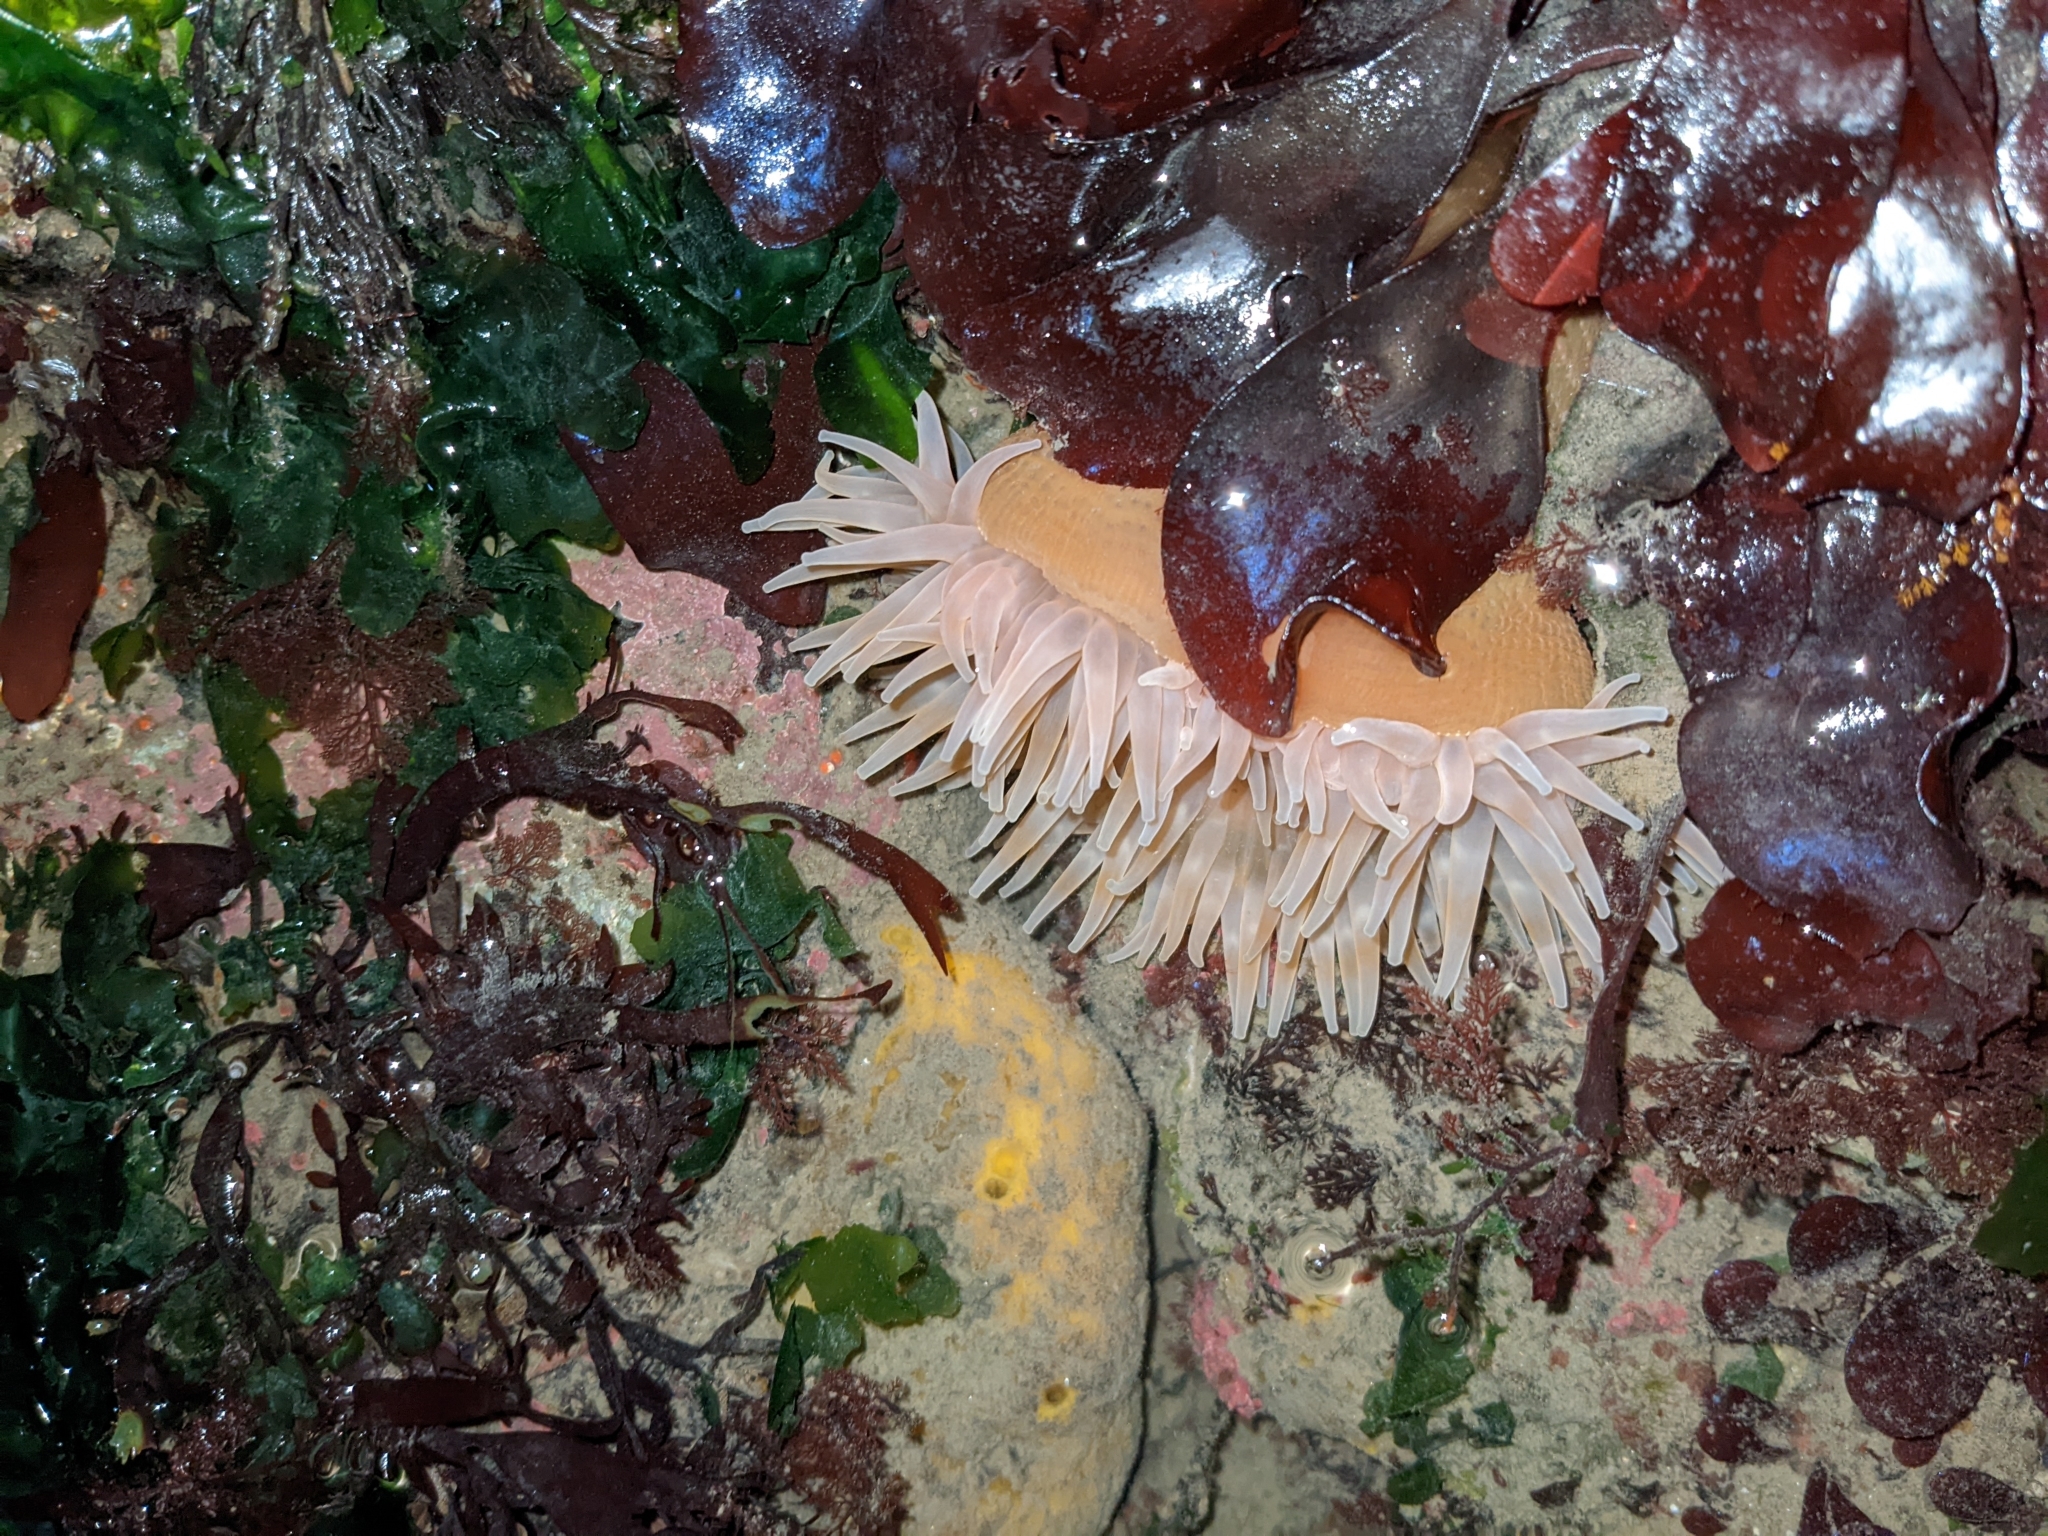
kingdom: Animalia
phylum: Cnidaria
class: Anthozoa
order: Actiniaria
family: Actiniidae
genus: Urticina
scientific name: Urticina grebelnyi
